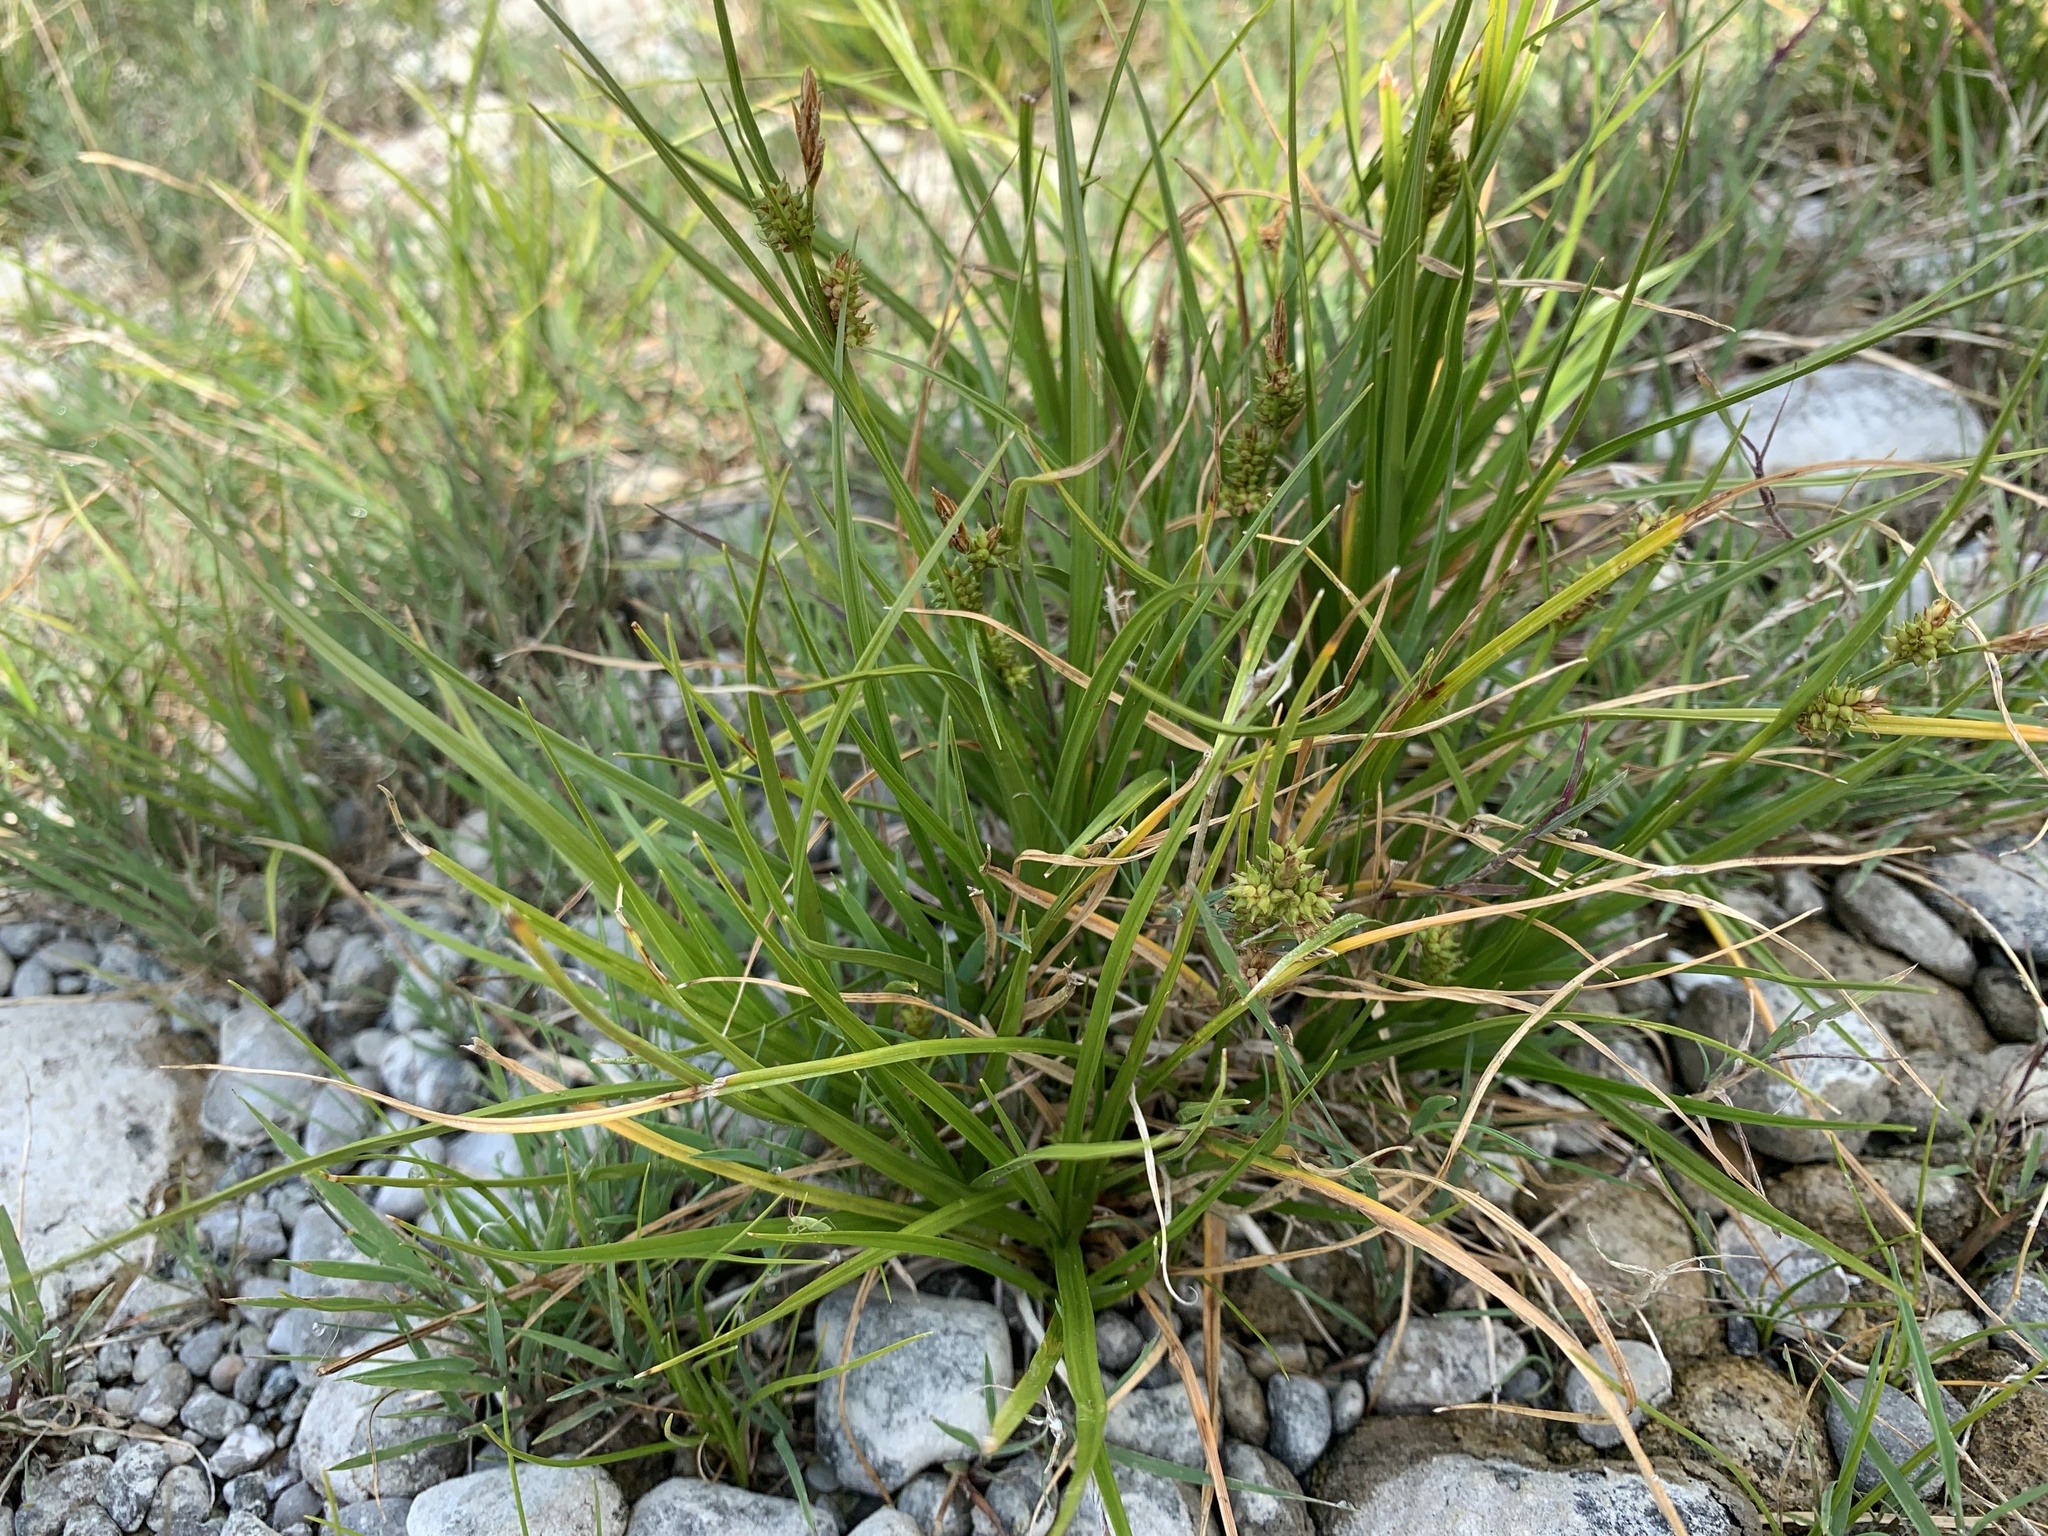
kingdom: Plantae
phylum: Tracheophyta
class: Liliopsida
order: Poales
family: Cyperaceae
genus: Carex
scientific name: Carex demissa
